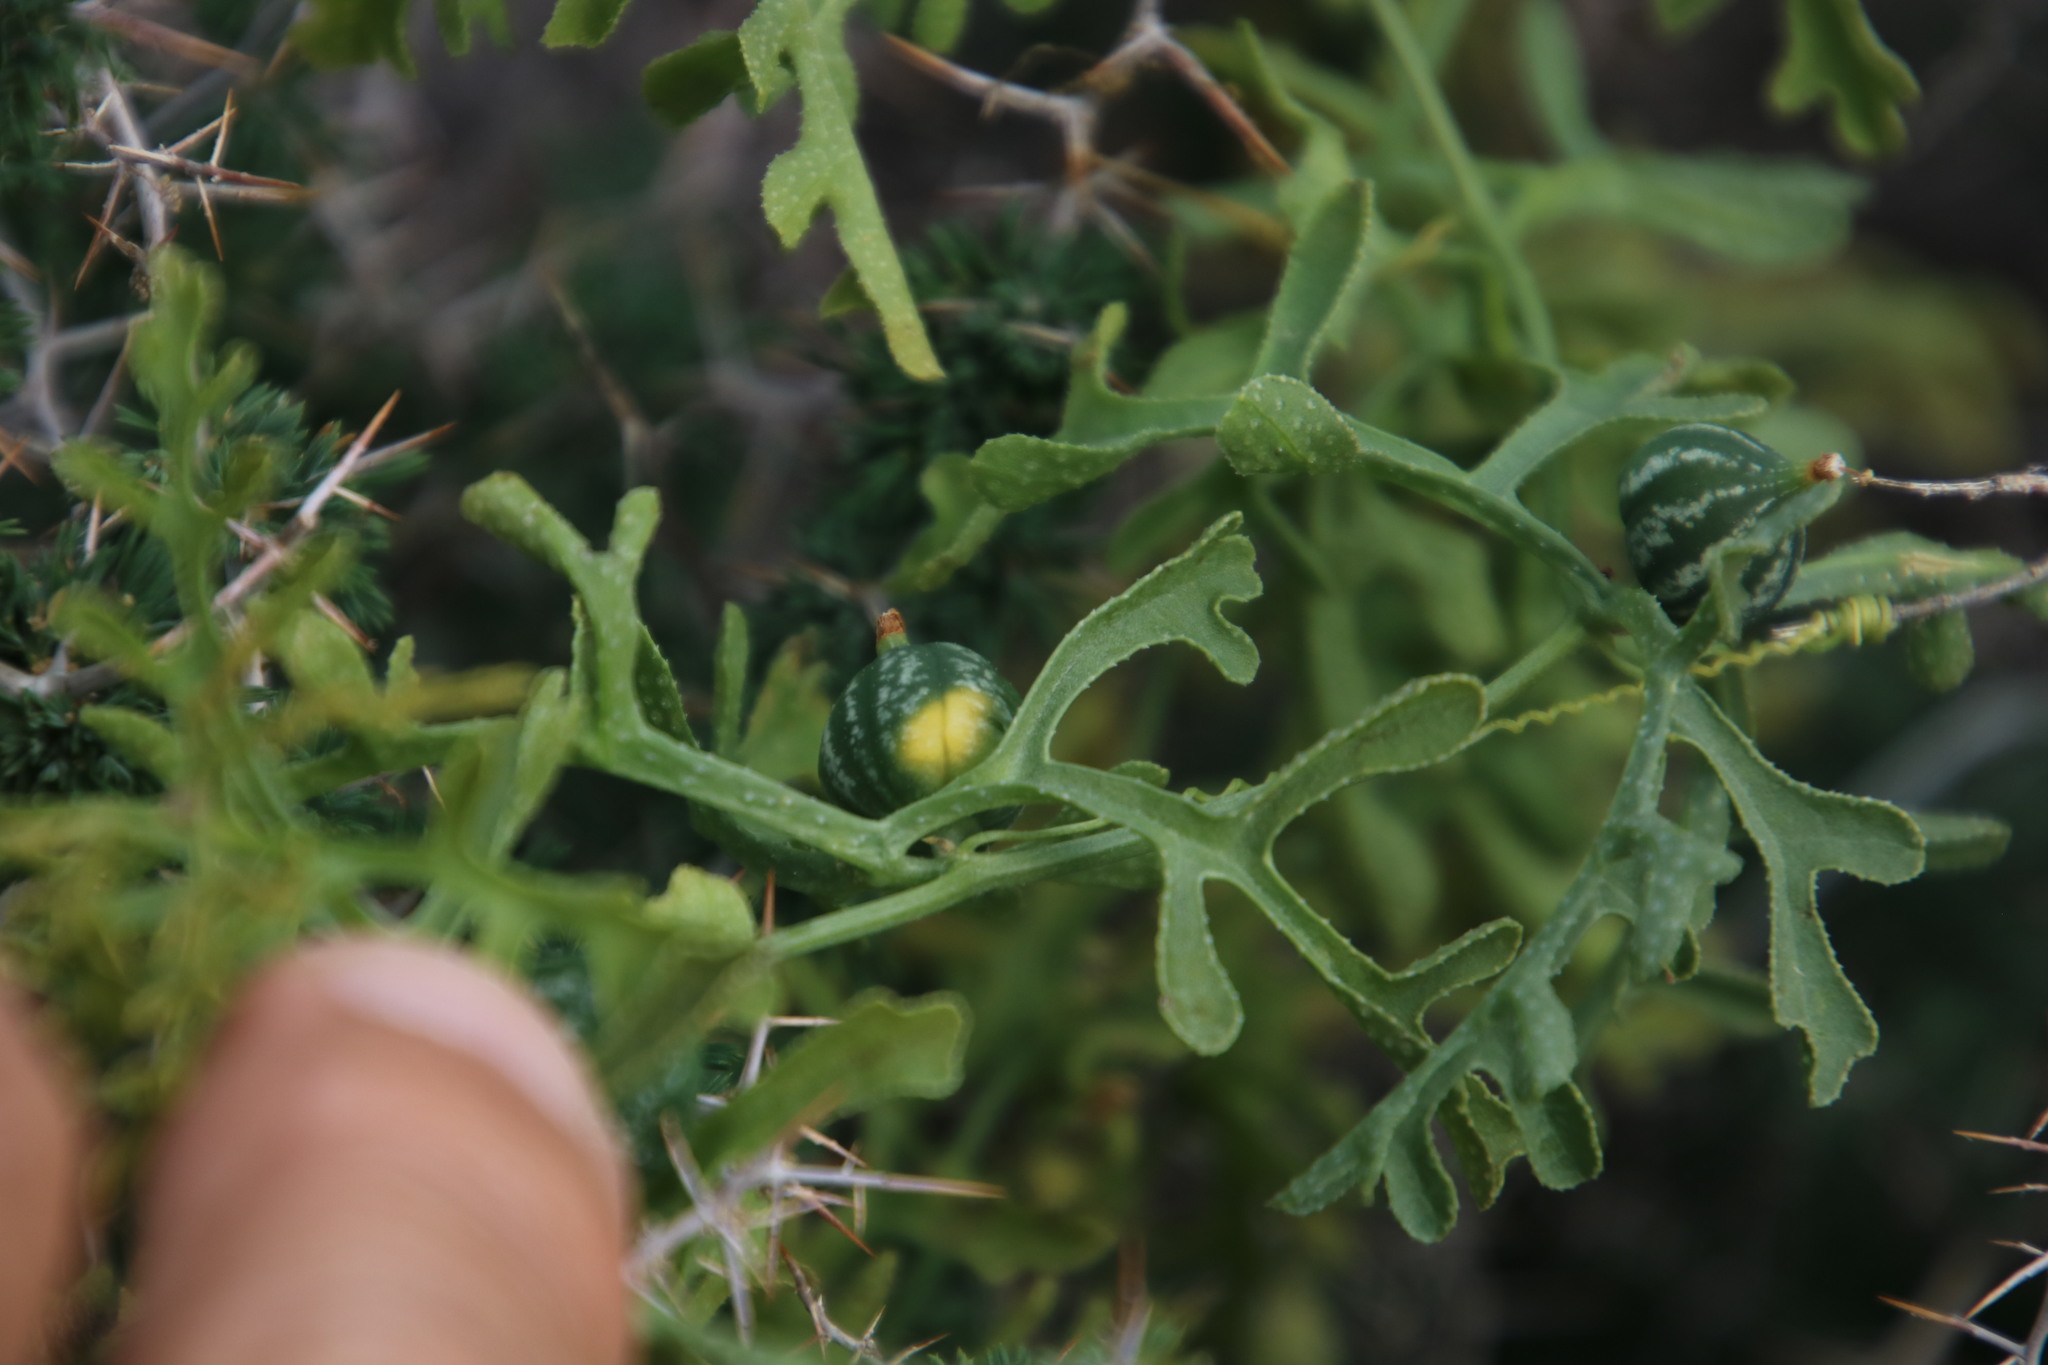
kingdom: Plantae
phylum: Tracheophyta
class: Magnoliopsida
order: Cucurbitales
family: Cucurbitaceae
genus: Kedrostis
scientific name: Kedrostis africana
